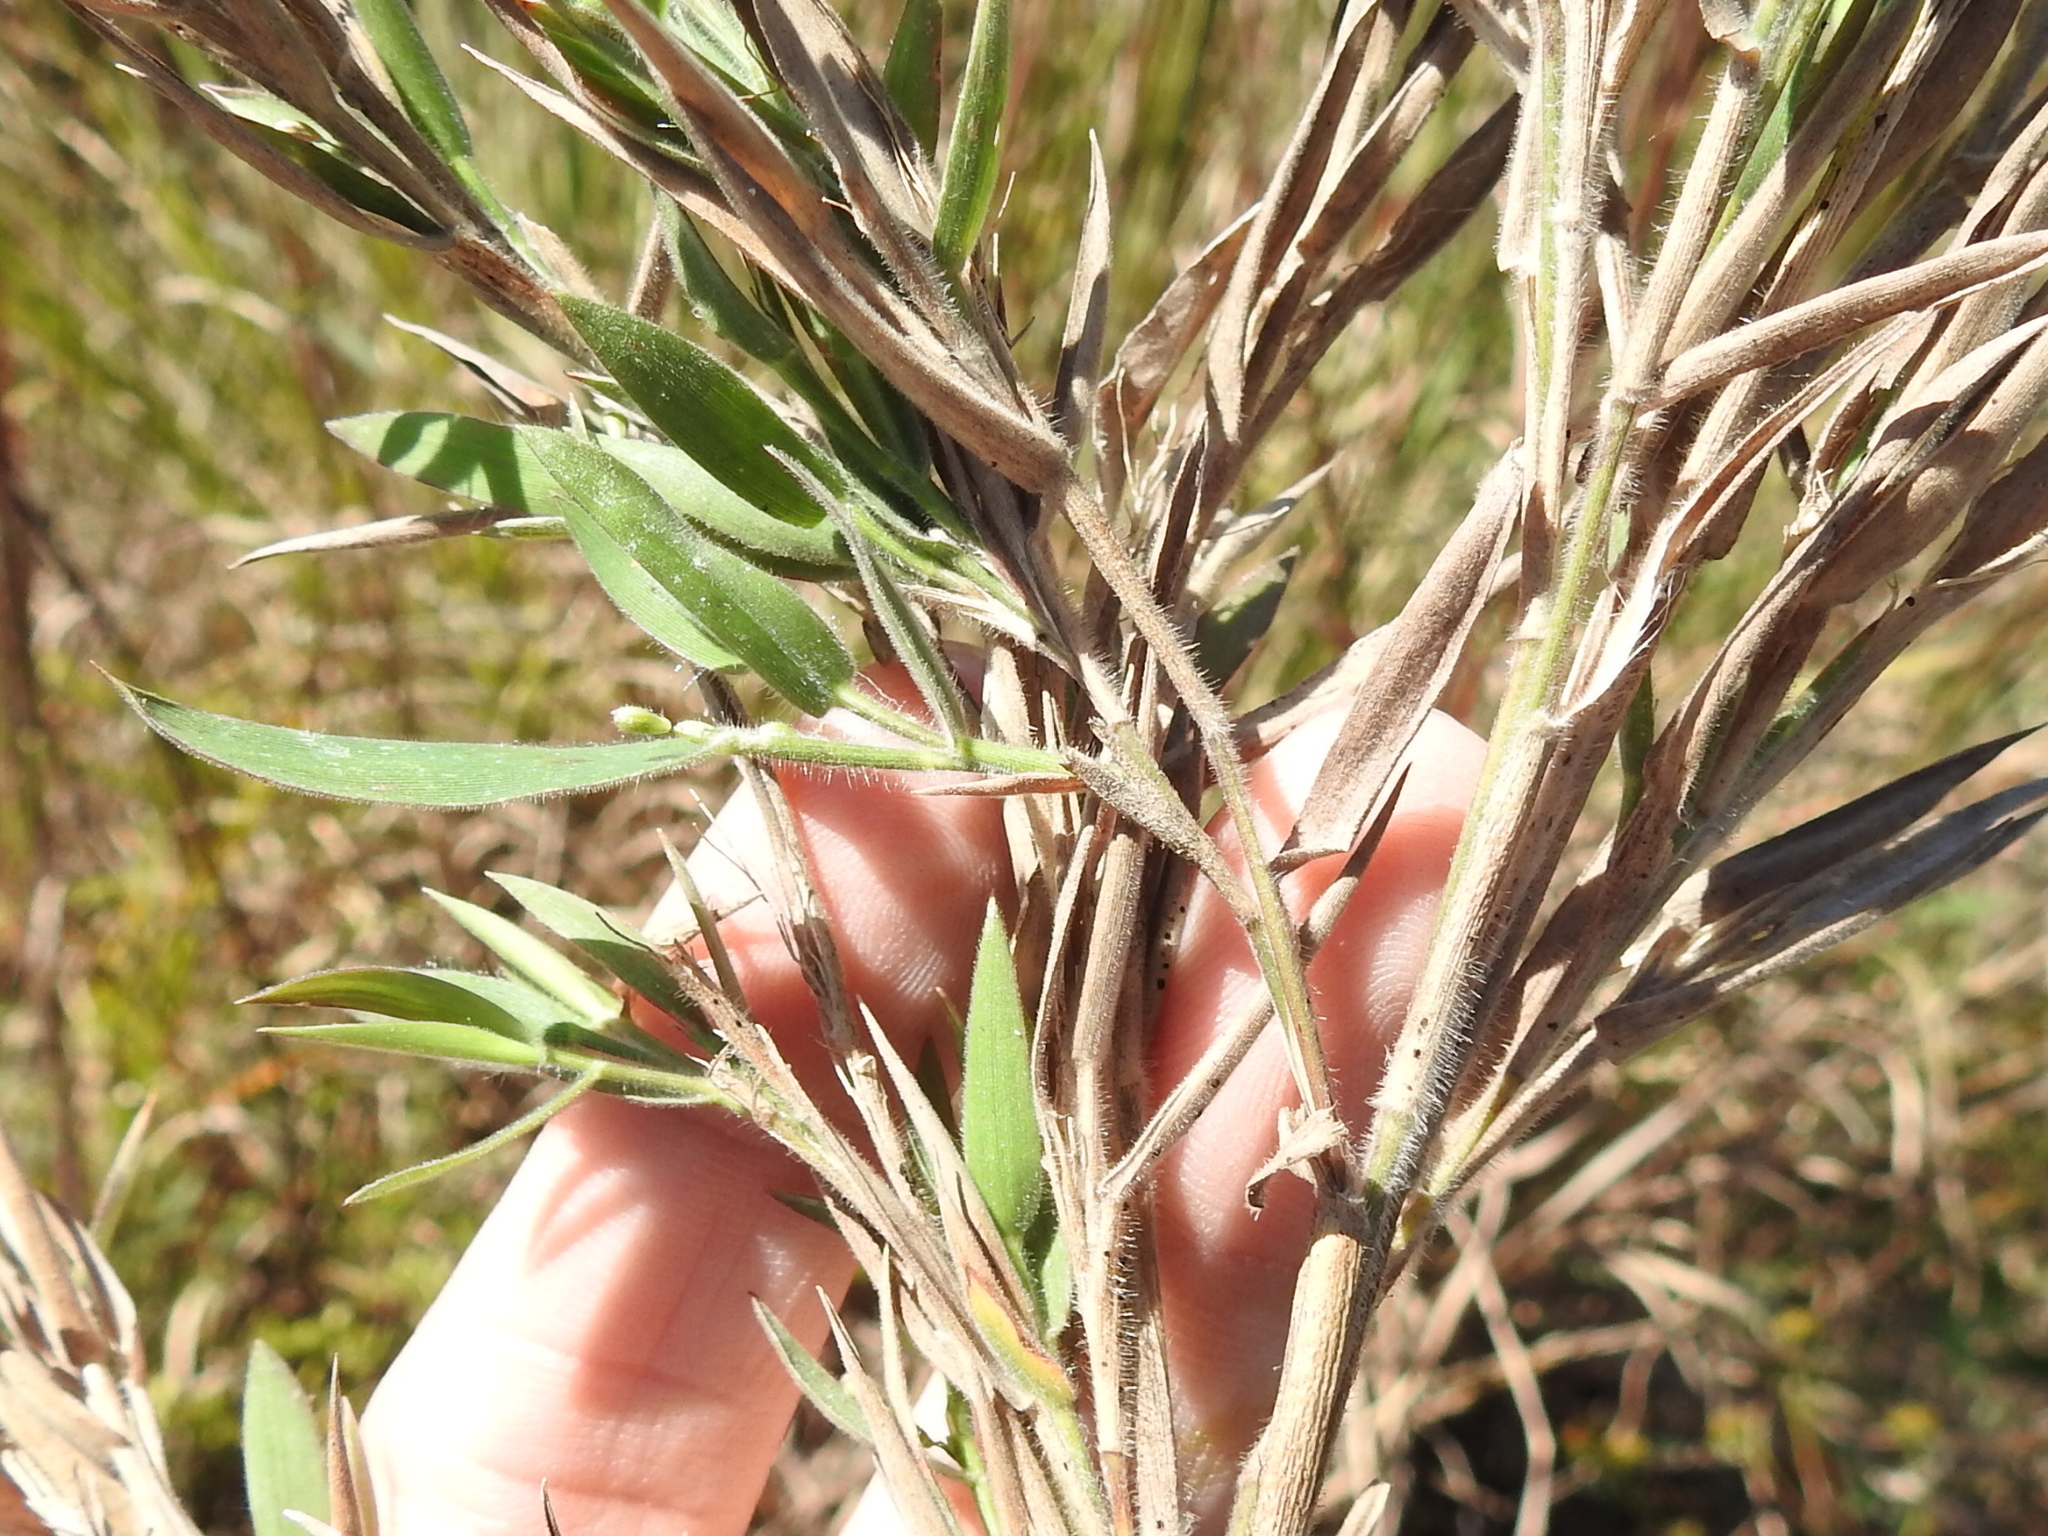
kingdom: Plantae
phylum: Tracheophyta
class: Liliopsida
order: Poales
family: Poaceae
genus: Dichanthelium
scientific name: Dichanthelium scoparium
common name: Velvety panic grass
